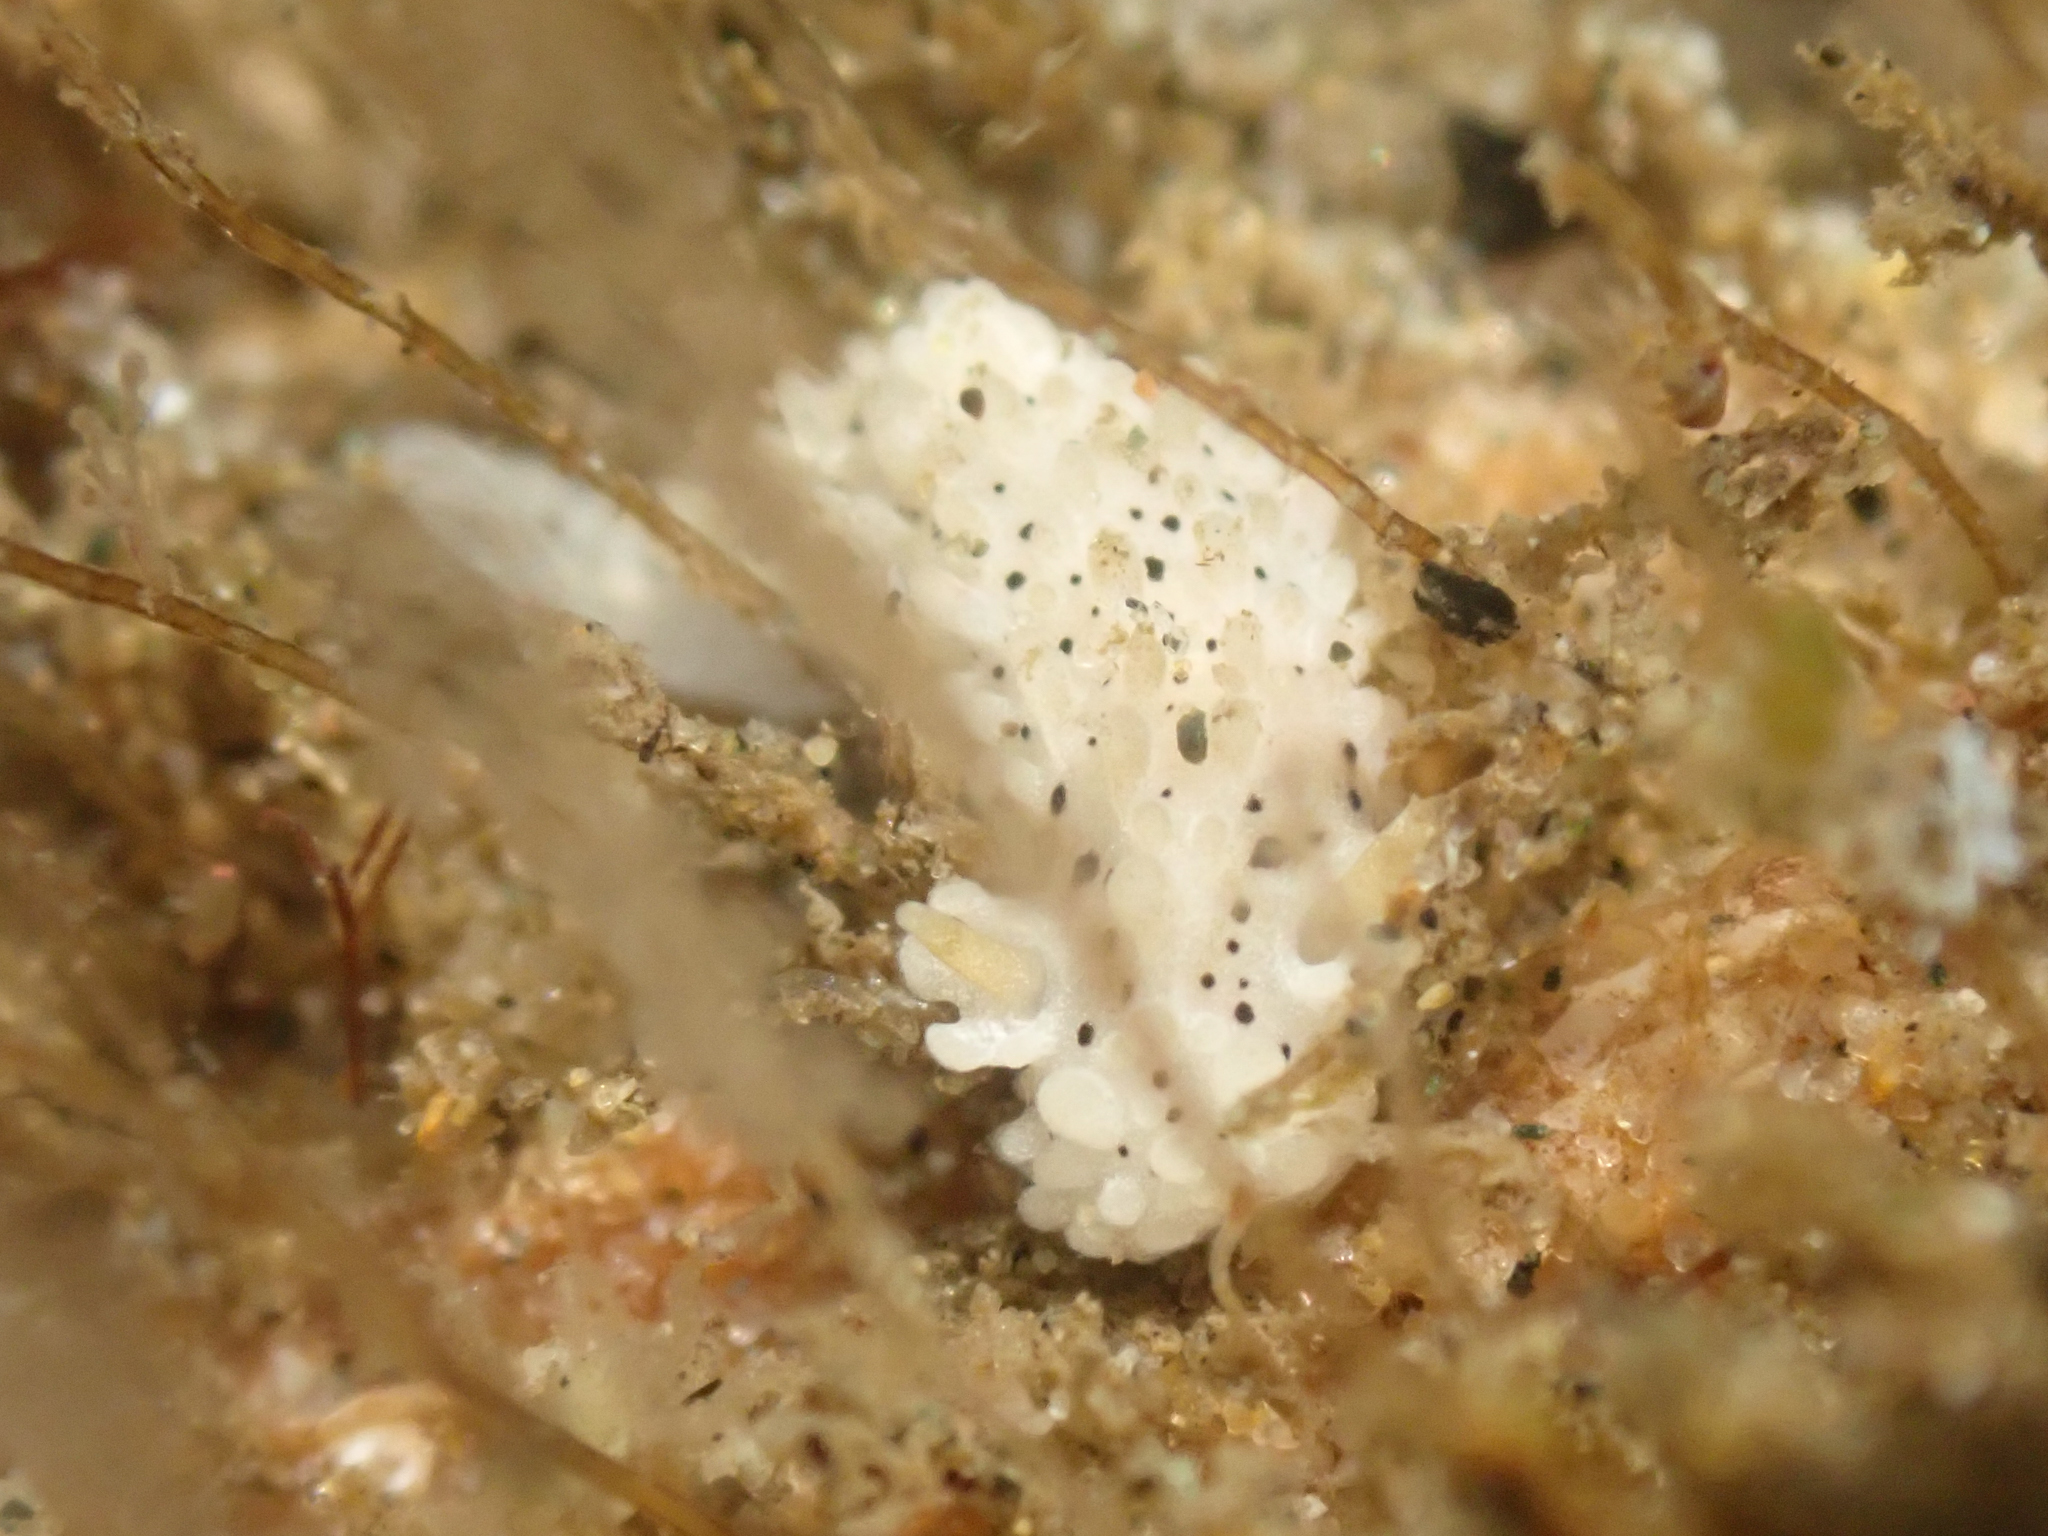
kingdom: Animalia
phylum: Mollusca
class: Gastropoda
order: Nudibranchia
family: Aegiridae
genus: Aegires
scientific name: Aegires albopunctatus
